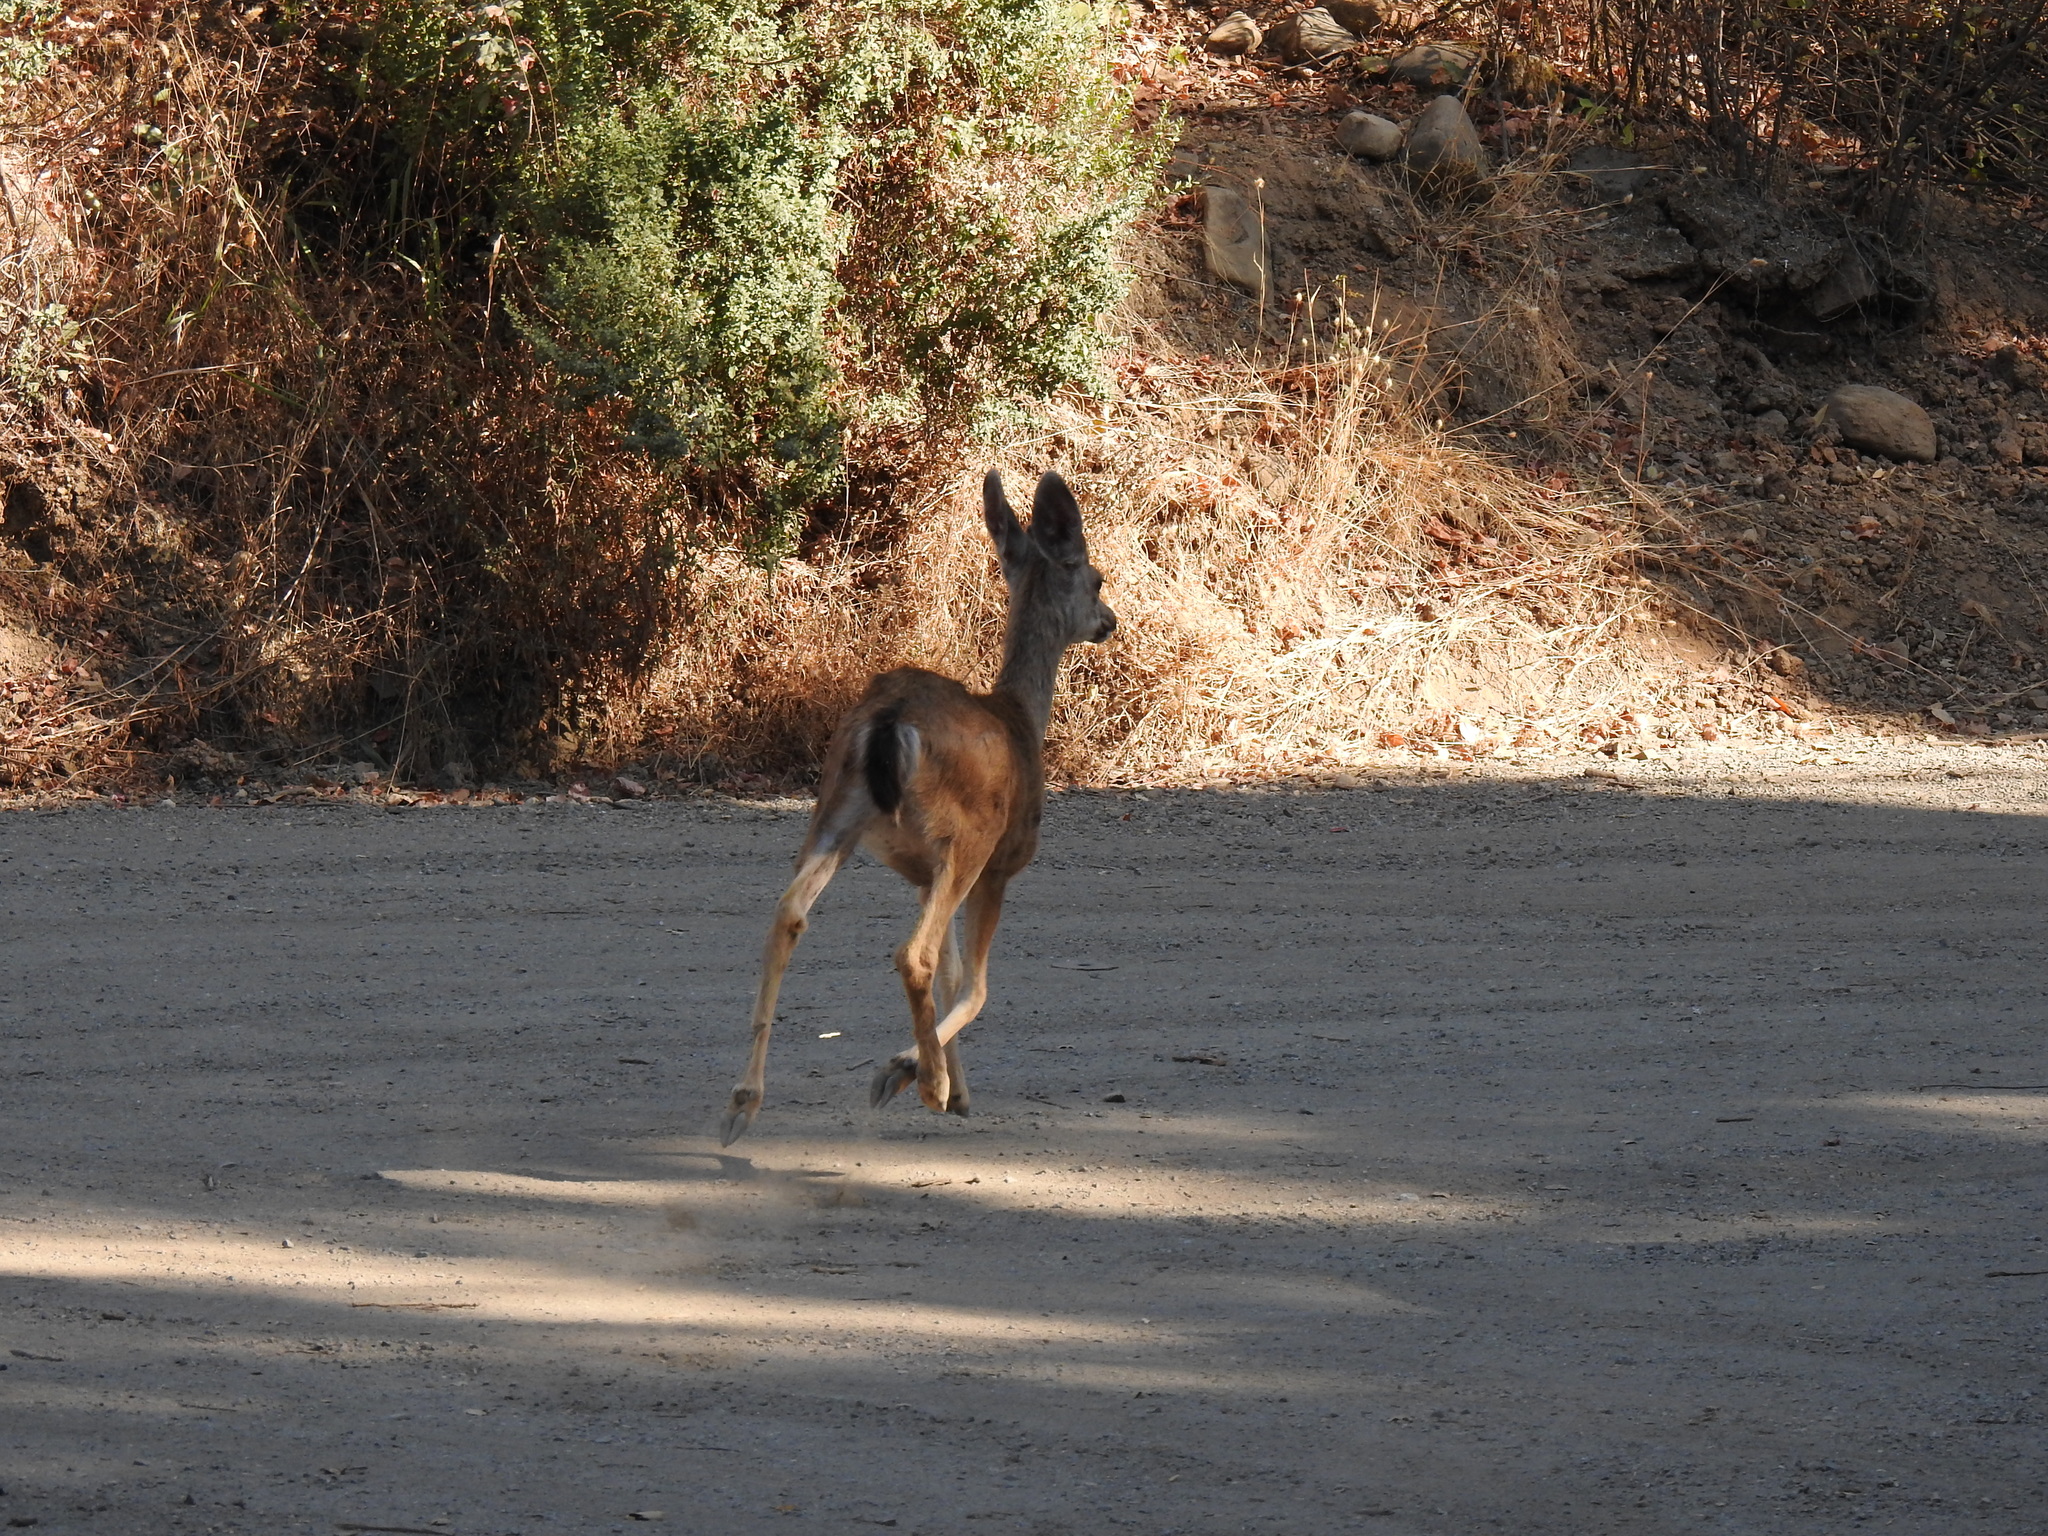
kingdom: Animalia
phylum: Chordata
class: Mammalia
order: Artiodactyla
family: Cervidae
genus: Odocoileus
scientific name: Odocoileus hemionus
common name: Mule deer
